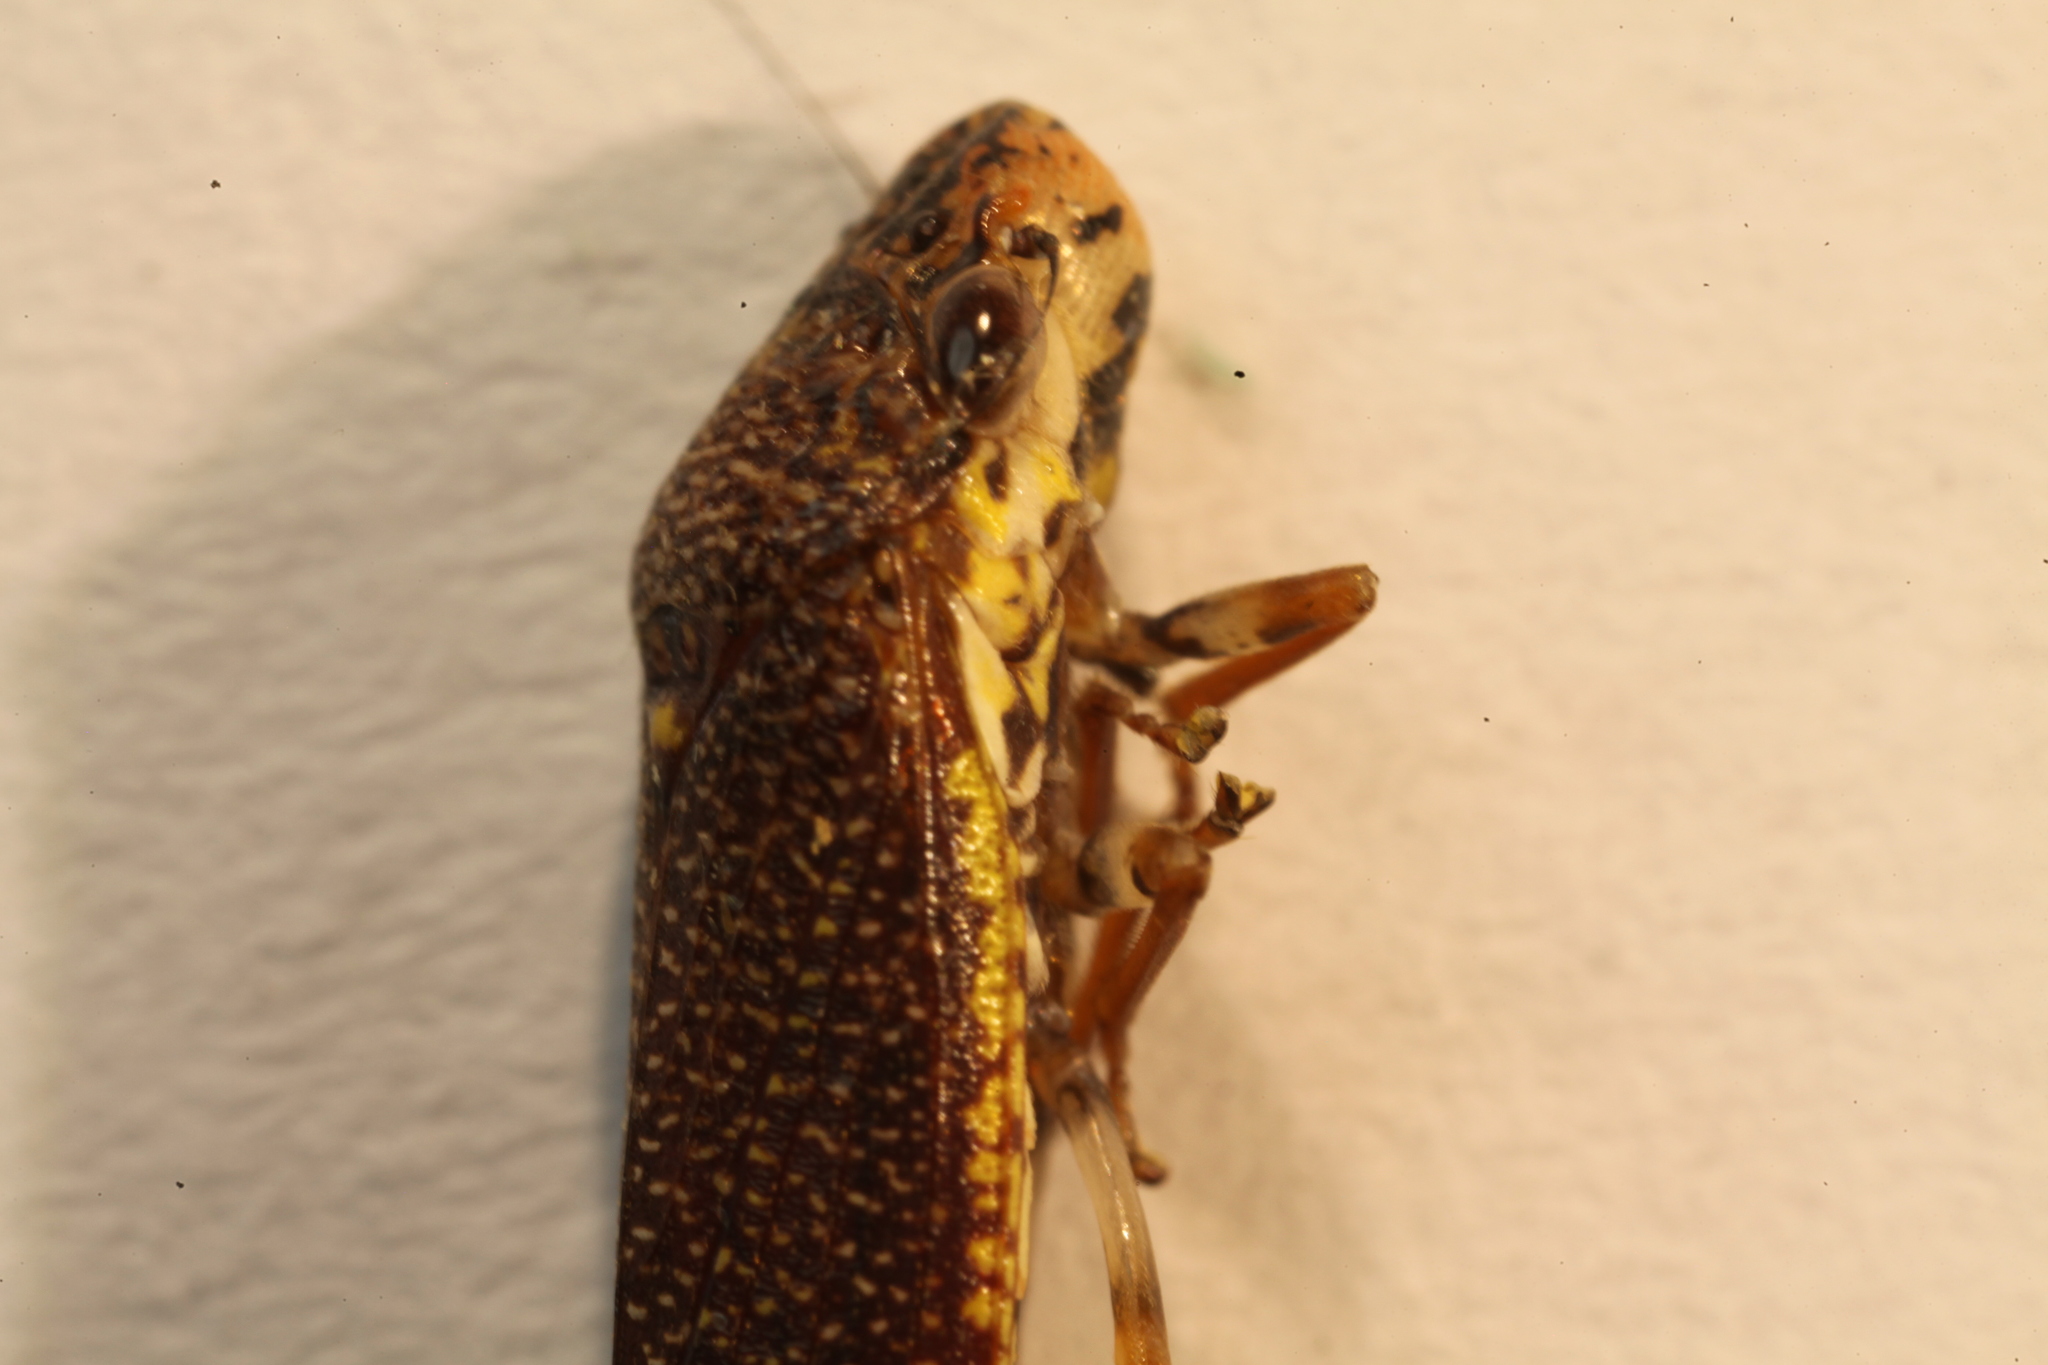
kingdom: Animalia
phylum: Arthropoda
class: Insecta
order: Hemiptera
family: Cicadellidae
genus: Paraulacizes
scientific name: Paraulacizes irrorata
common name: Speckled sharpshooter
